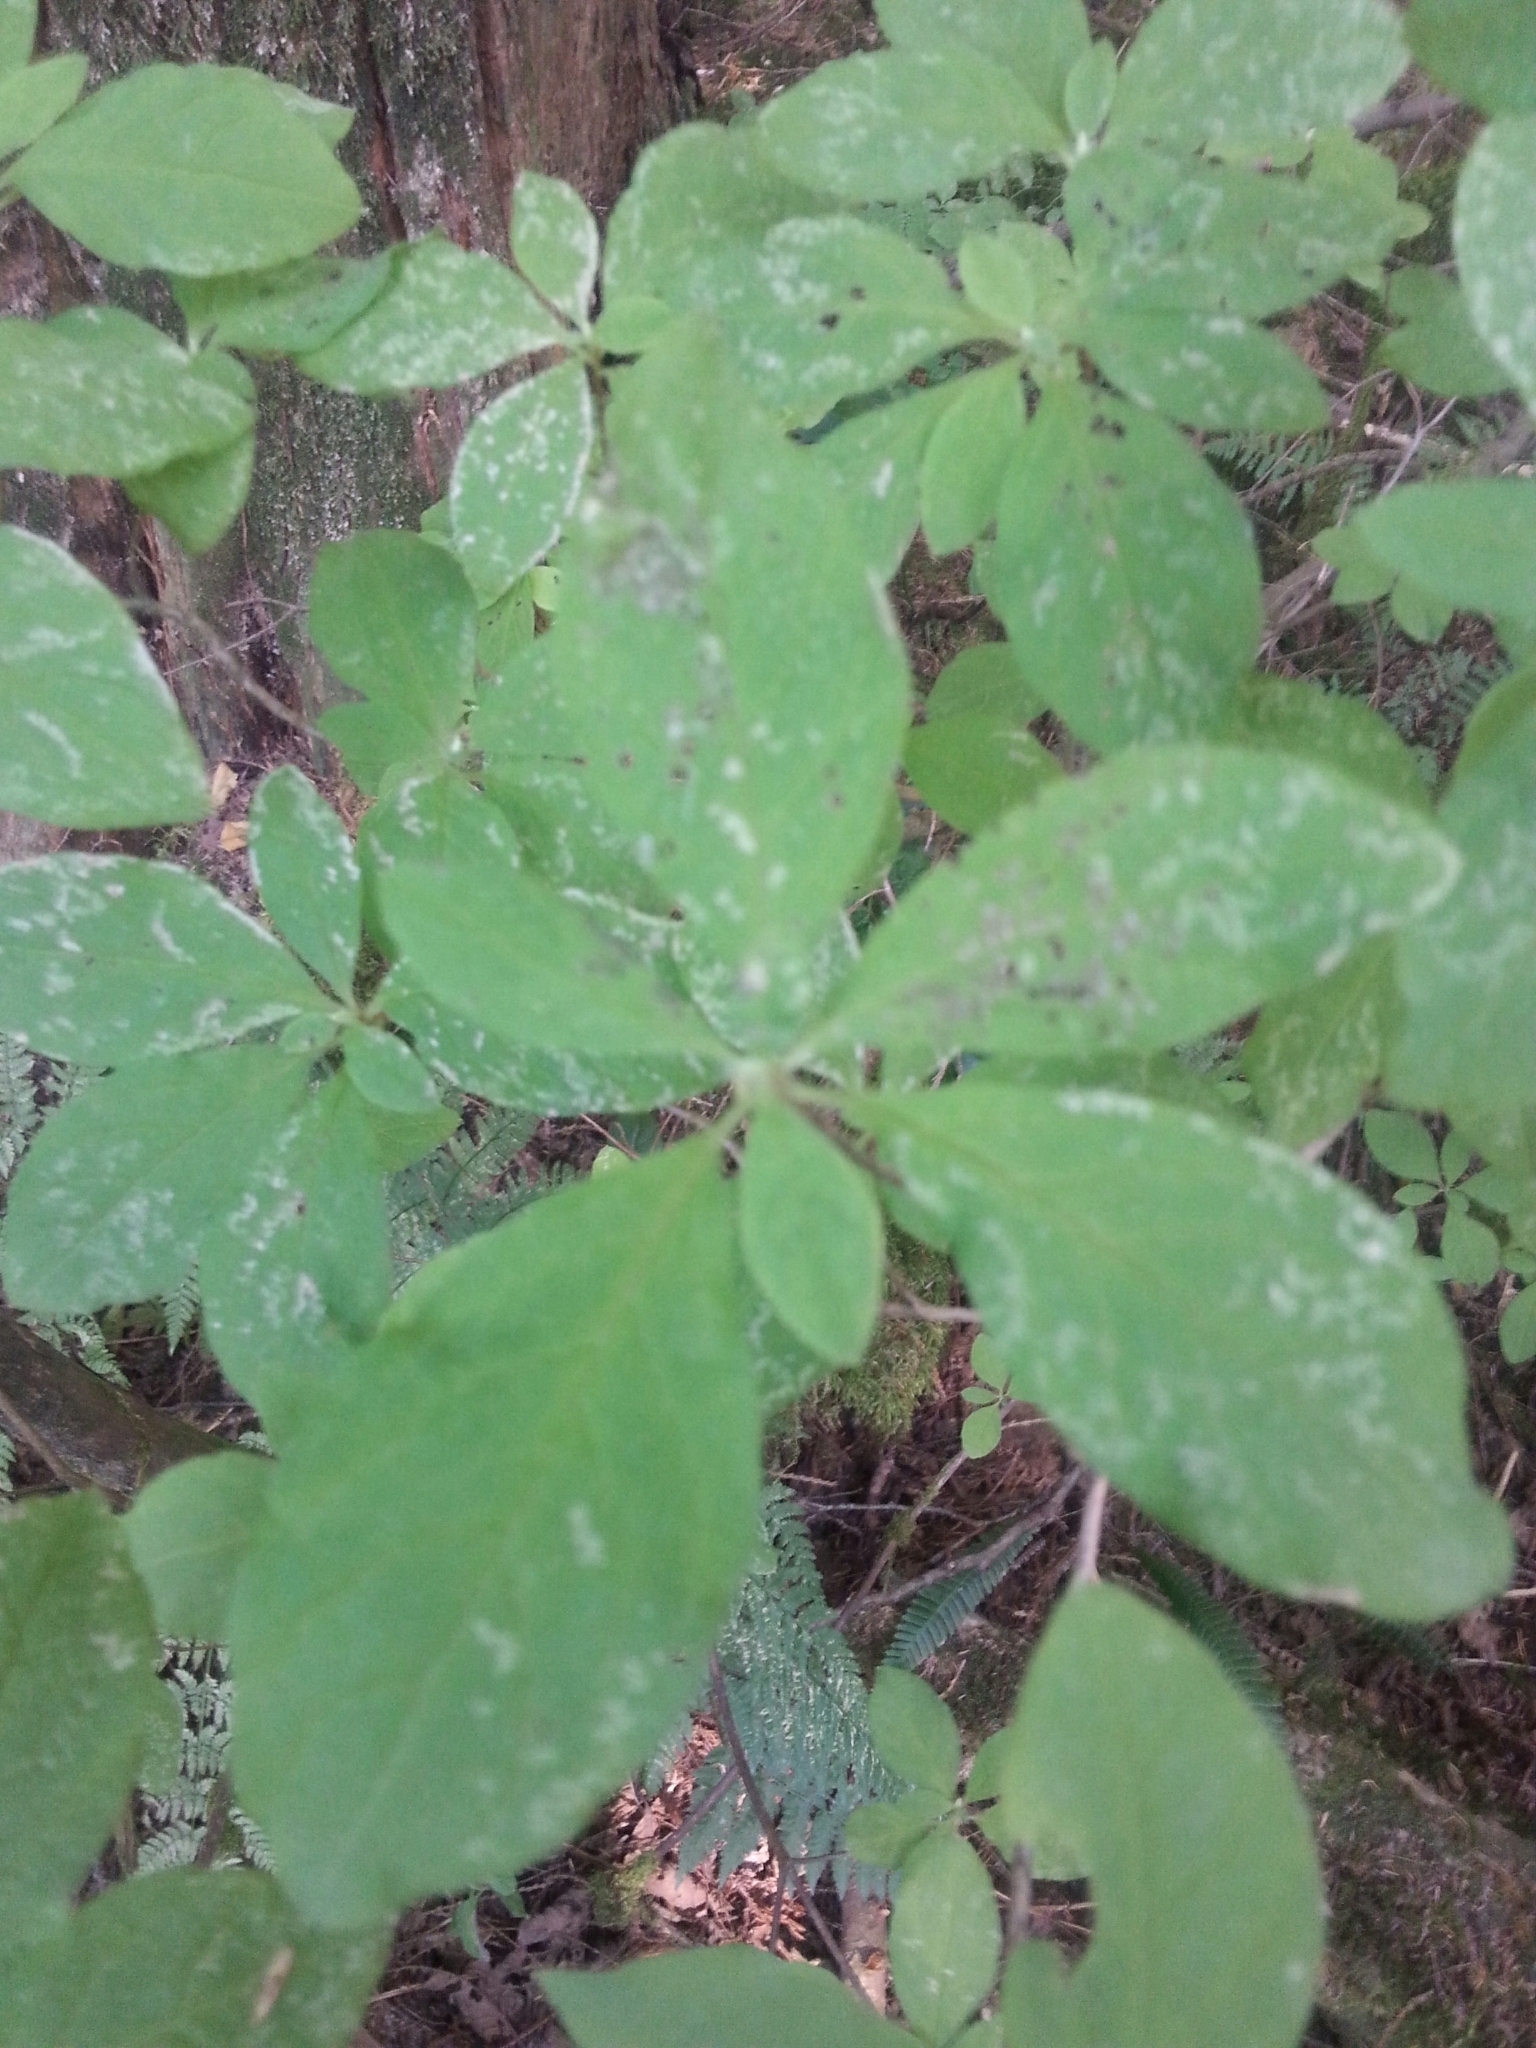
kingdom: Plantae
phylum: Tracheophyta
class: Magnoliopsida
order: Ericales
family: Ericaceae
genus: Rhododendron
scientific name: Rhododendron menziesii
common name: Pacific menziesia
